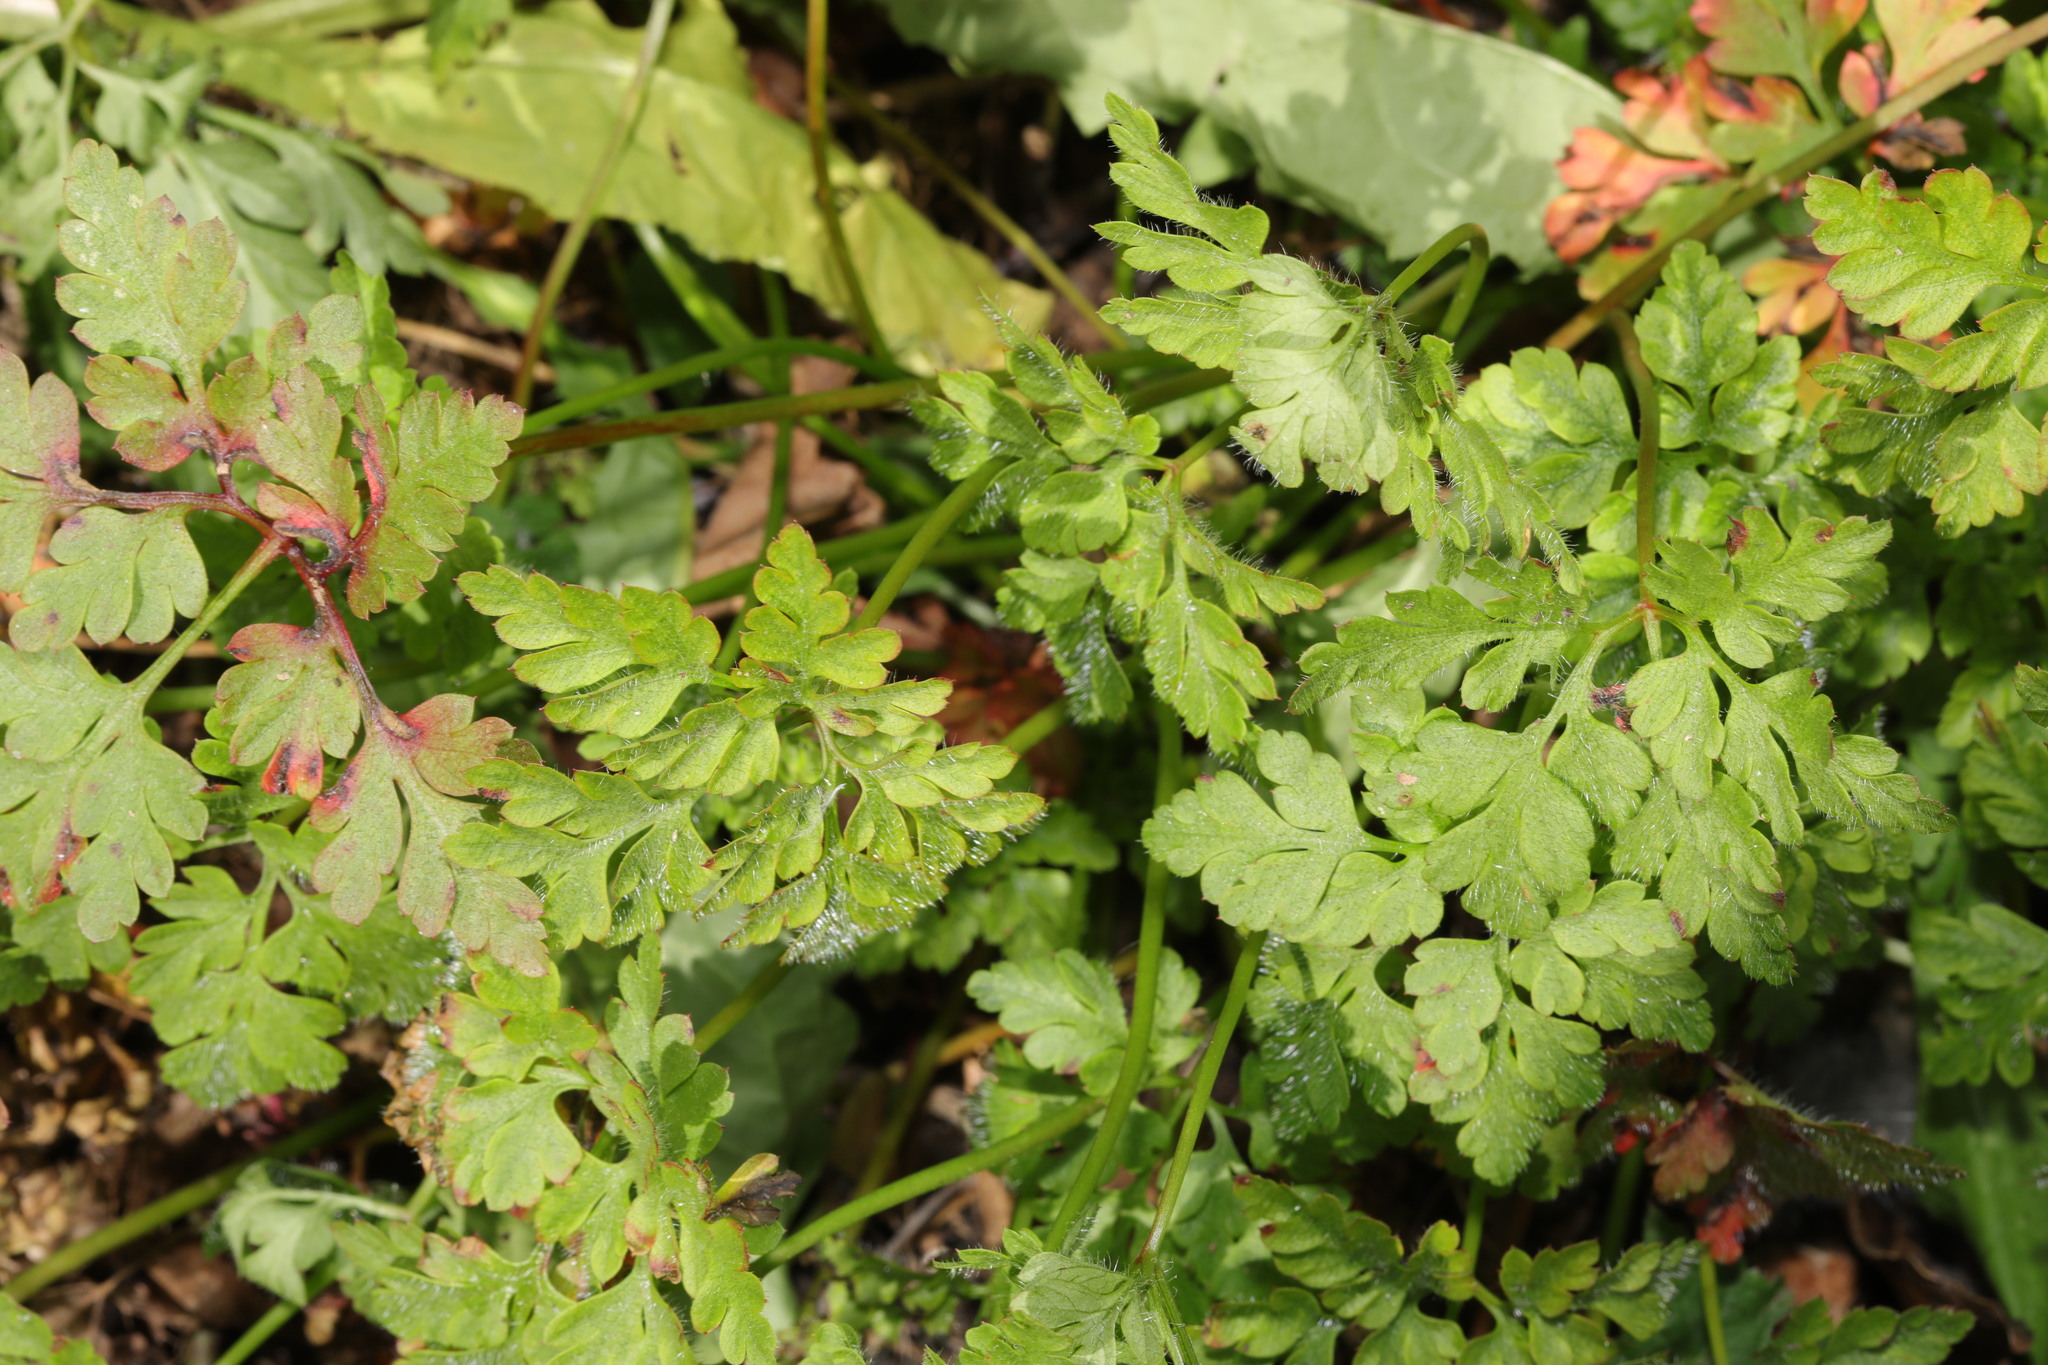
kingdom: Plantae
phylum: Tracheophyta
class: Magnoliopsida
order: Geraniales
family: Geraniaceae
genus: Geranium
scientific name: Geranium robertianum
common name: Herb-robert
